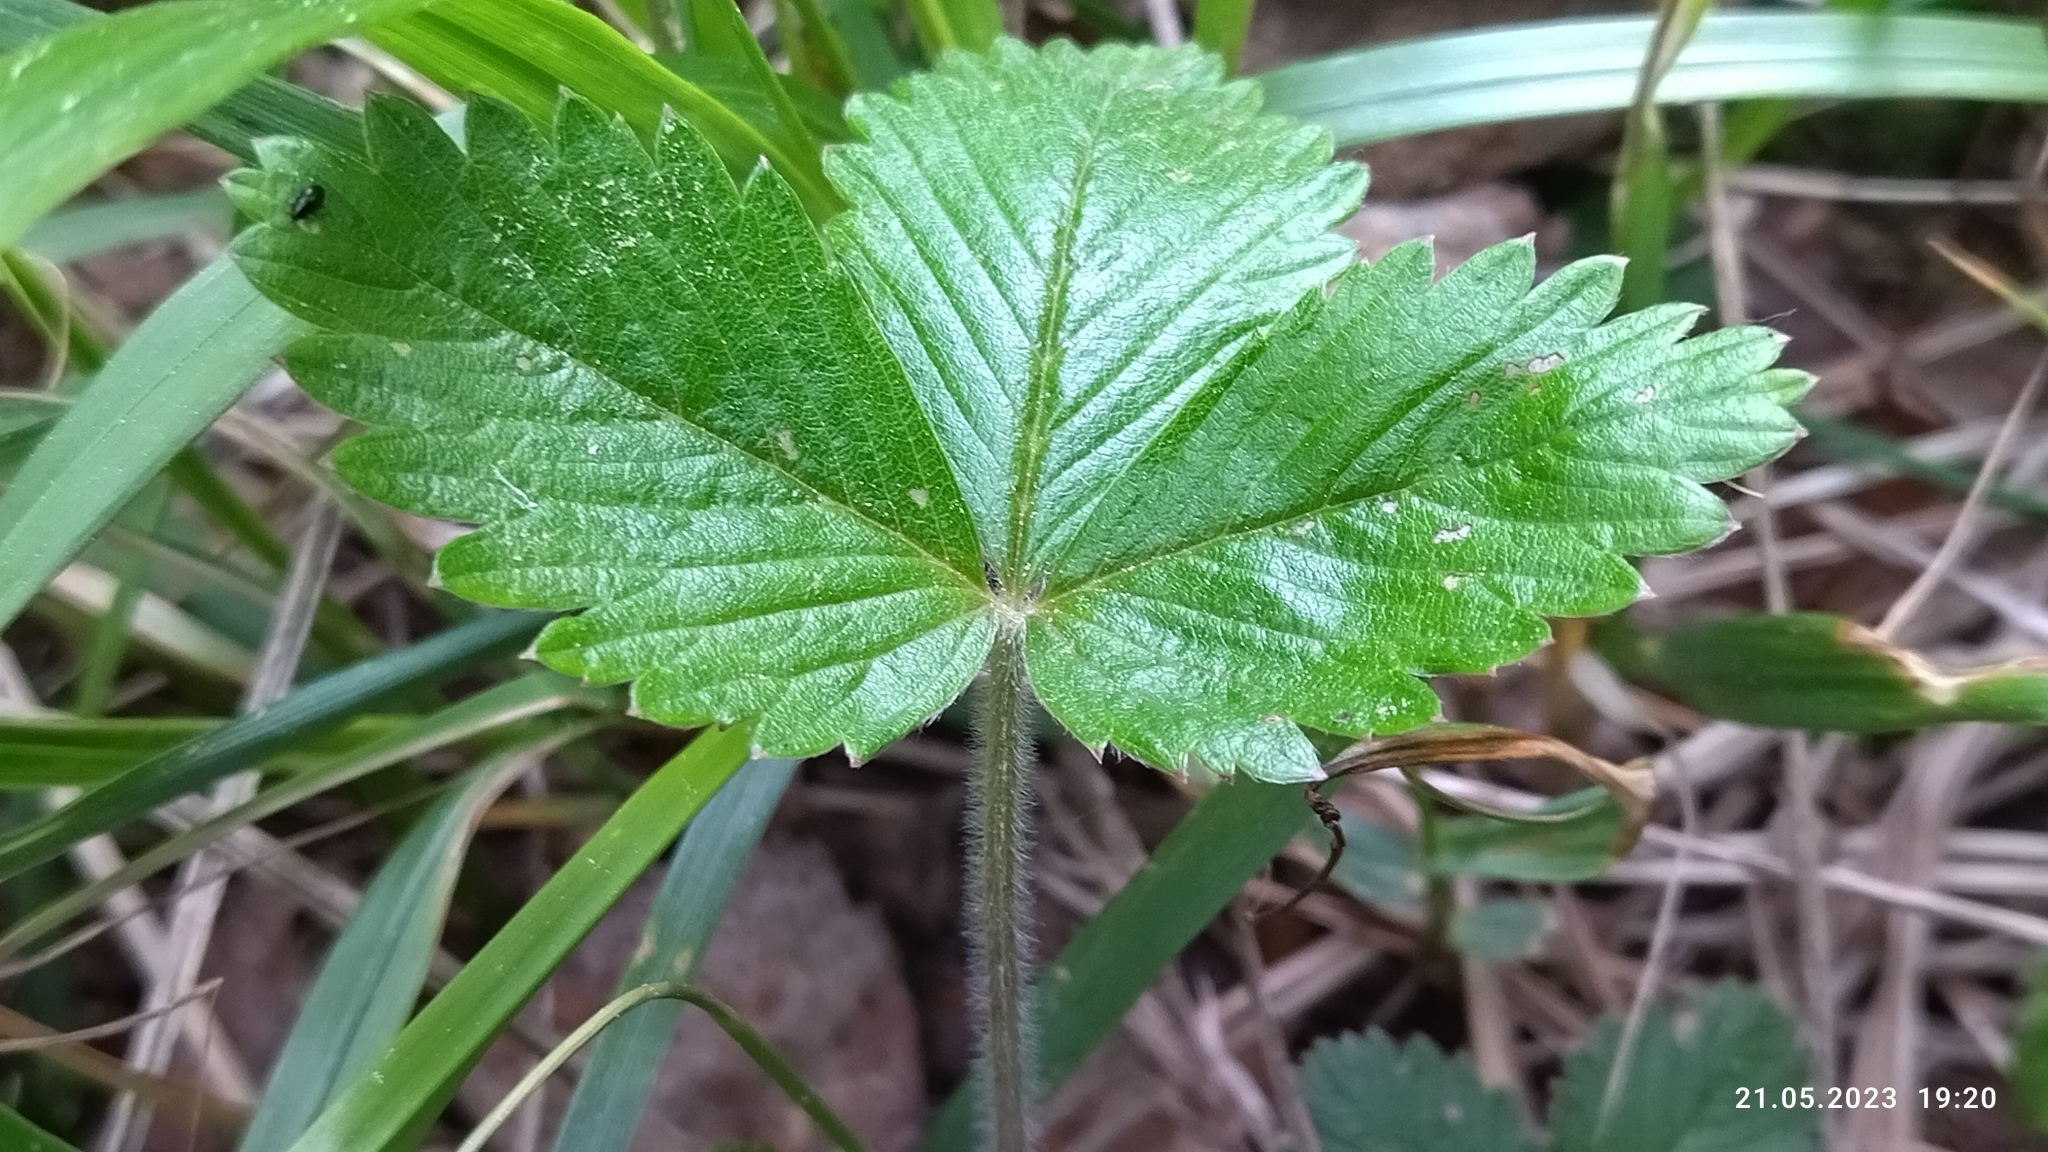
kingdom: Plantae
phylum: Tracheophyta
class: Magnoliopsida
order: Rosales
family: Rosaceae
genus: Fragaria
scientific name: Fragaria vesca
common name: Wild strawberry
